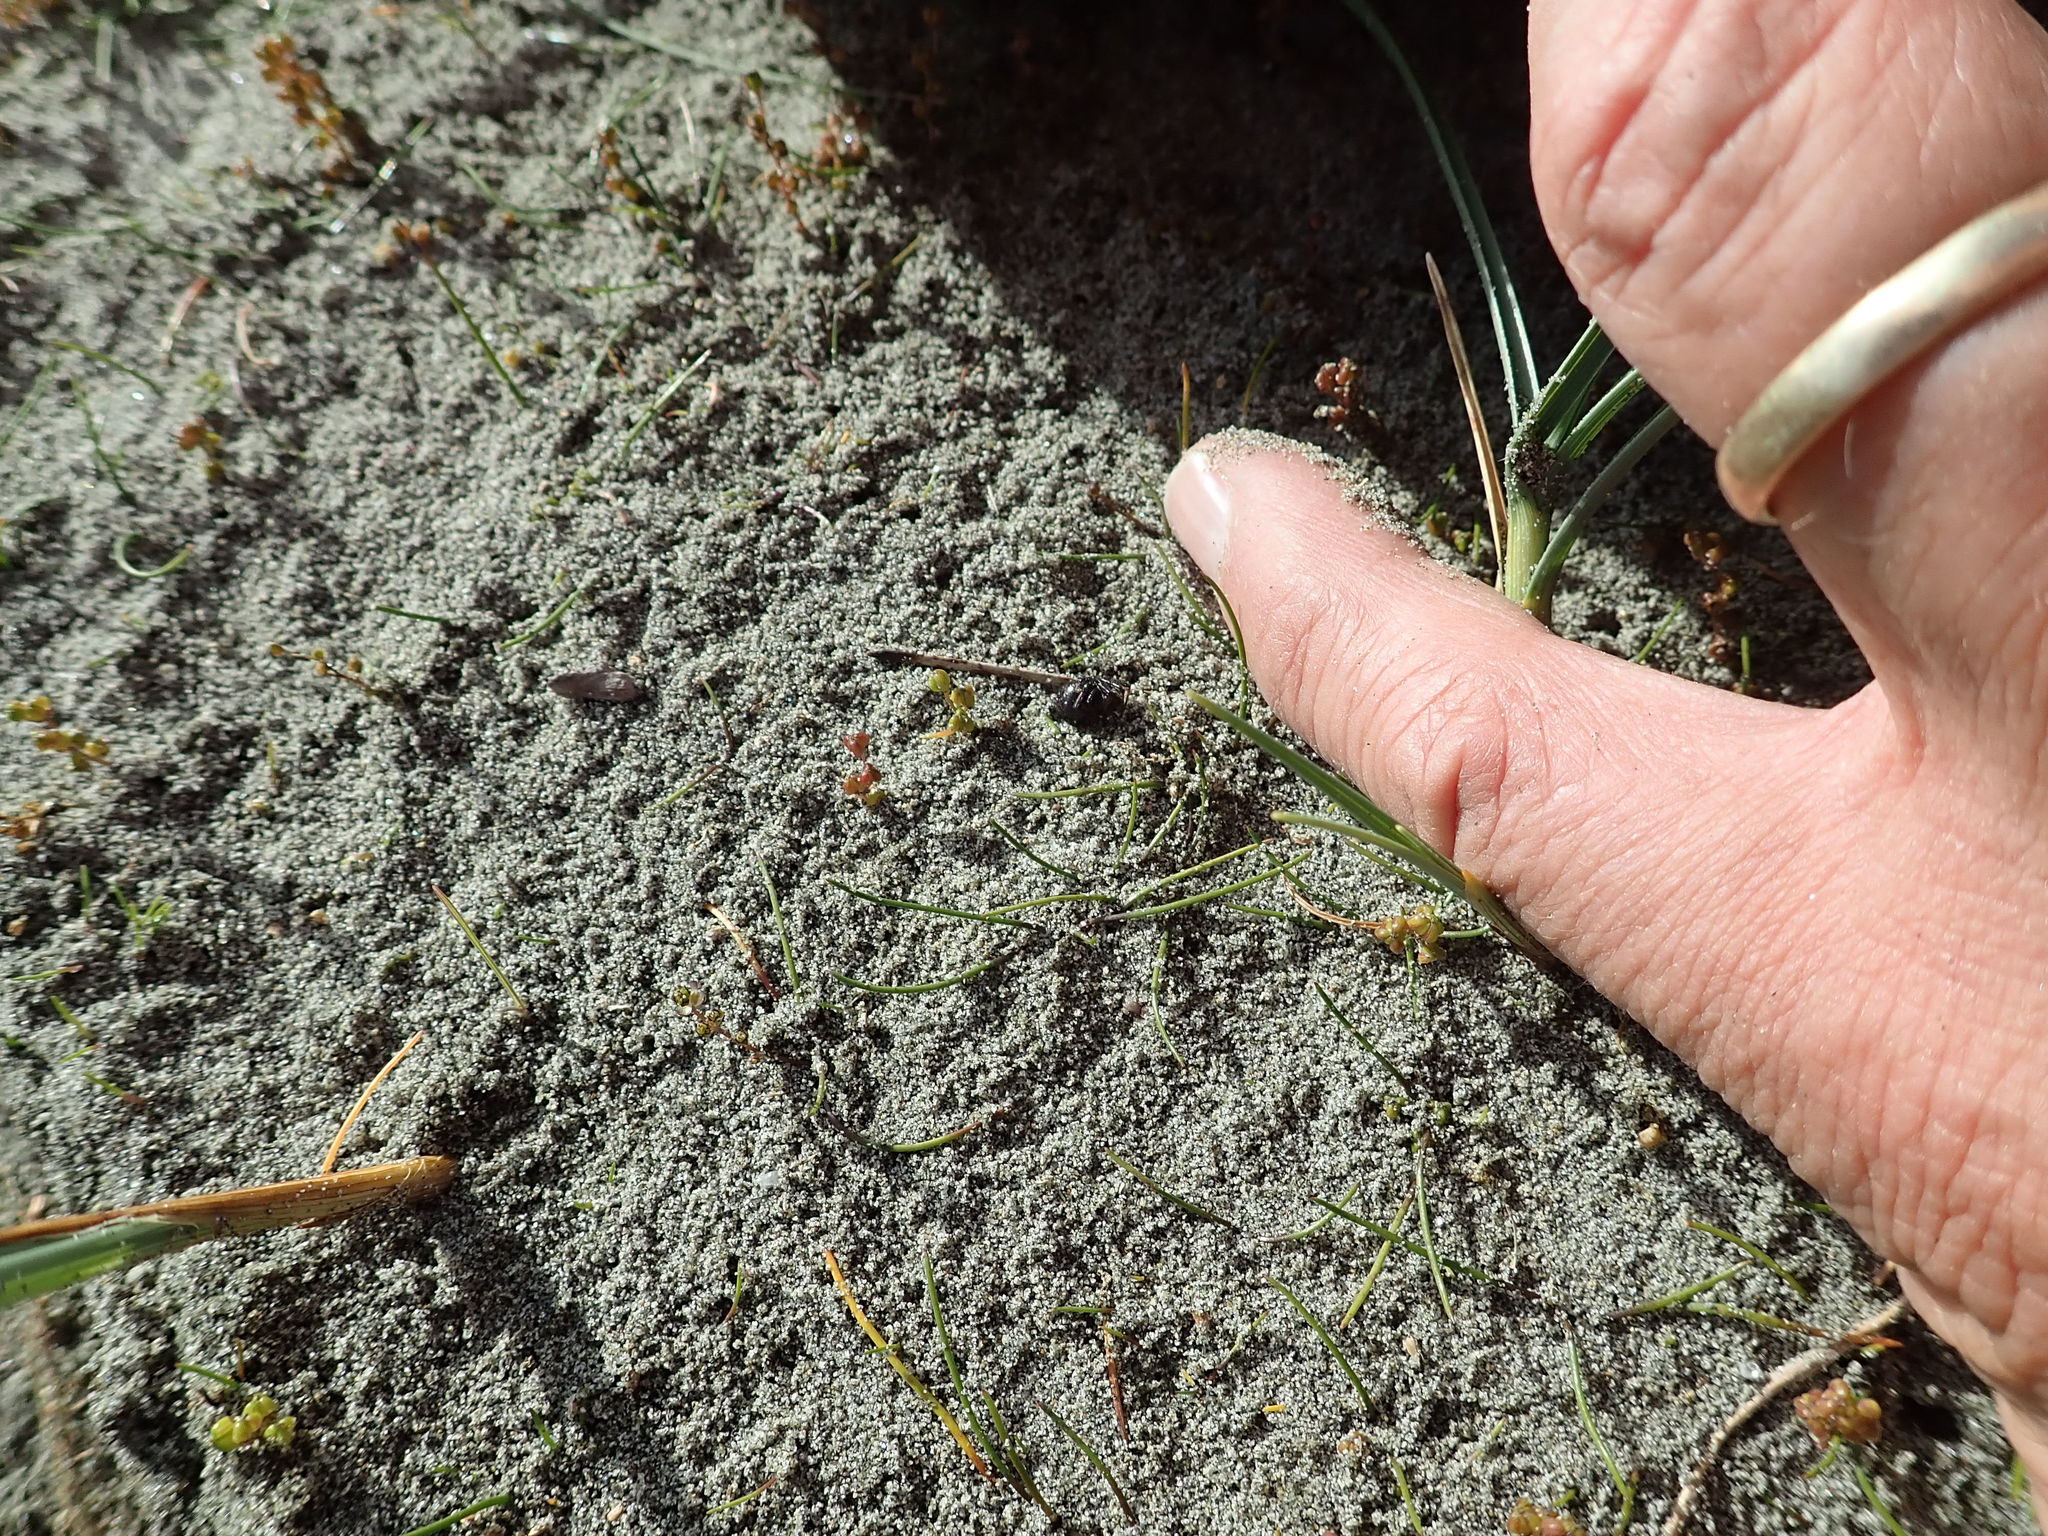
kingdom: Plantae
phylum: Tracheophyta
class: Liliopsida
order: Alismatales
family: Juncaginaceae
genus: Triglochin
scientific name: Triglochin striata
